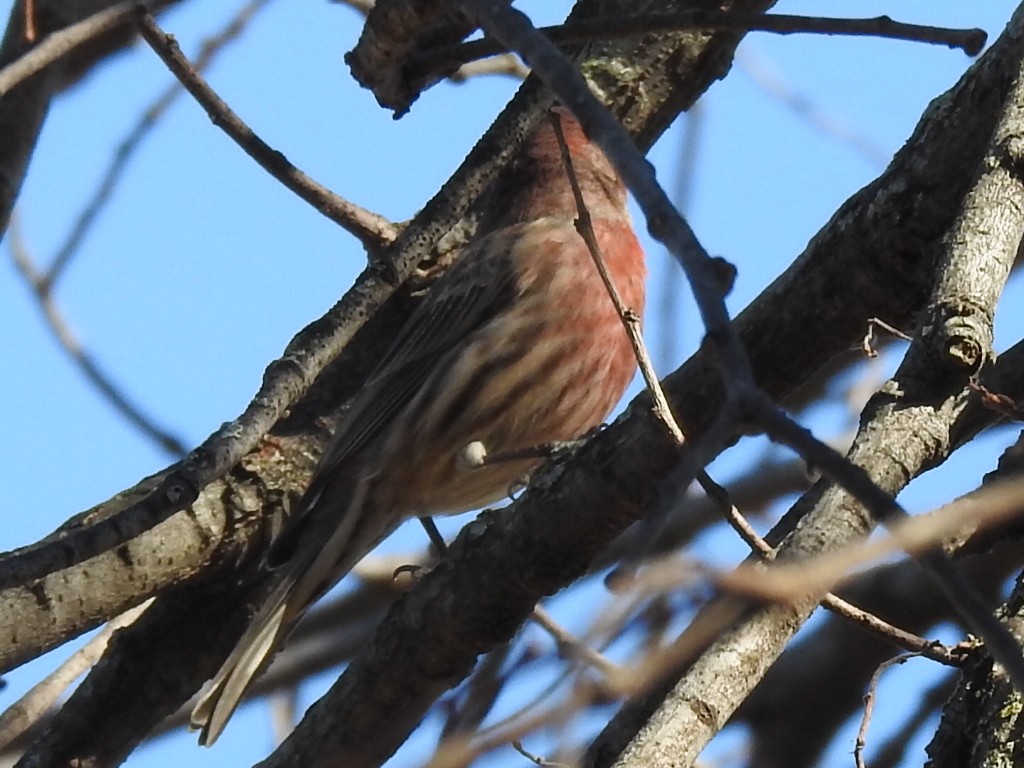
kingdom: Animalia
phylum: Chordata
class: Aves
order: Passeriformes
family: Fringillidae
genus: Haemorhous
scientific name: Haemorhous mexicanus
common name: House finch
